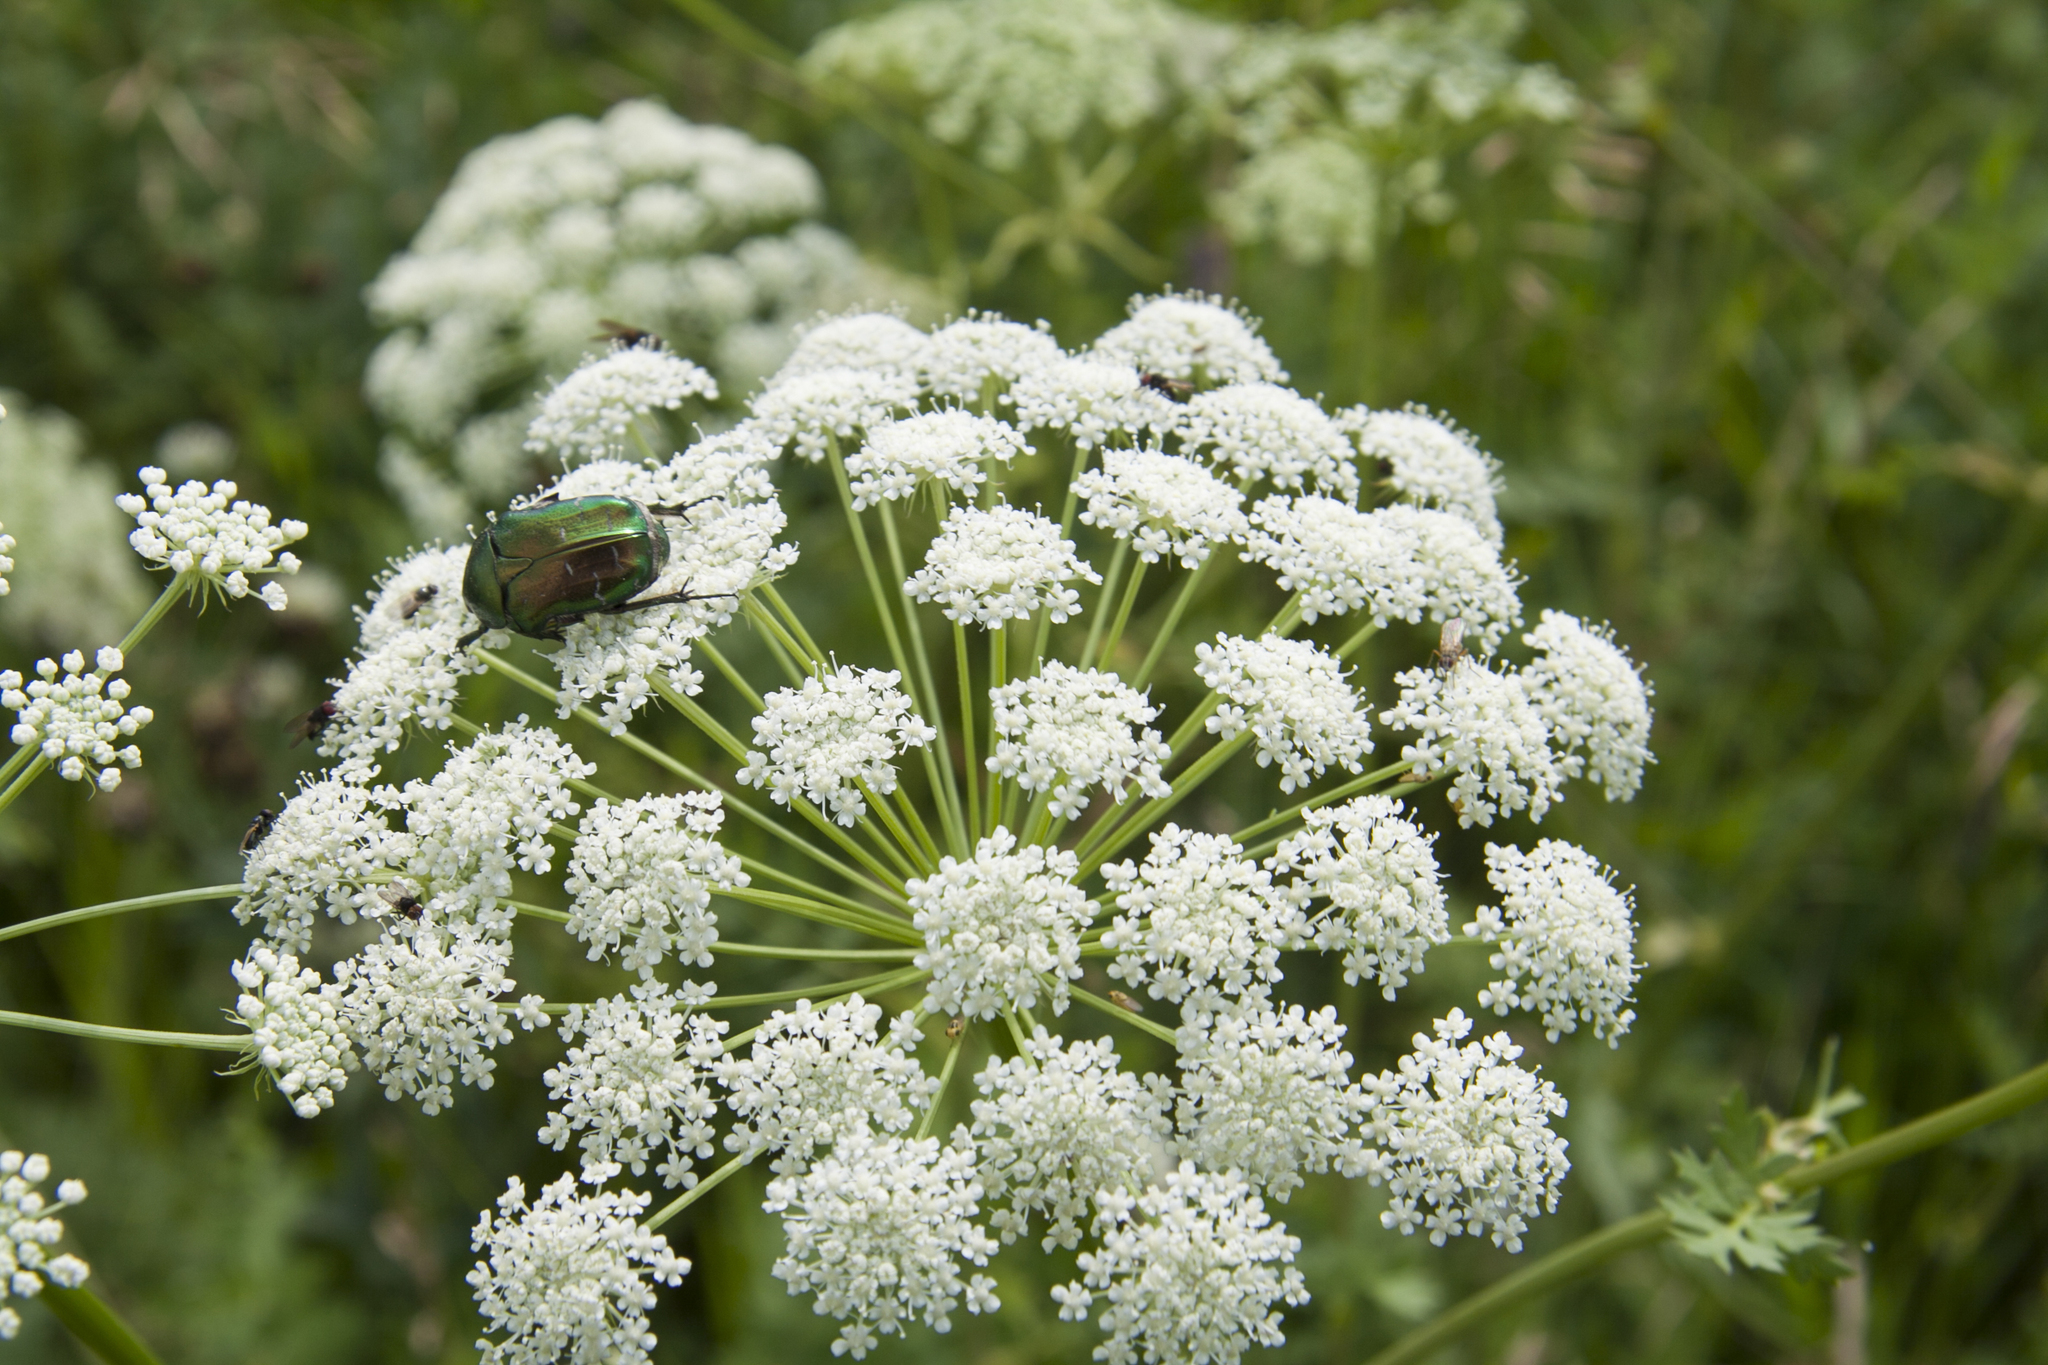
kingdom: Animalia
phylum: Arthropoda
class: Insecta
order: Coleoptera
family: Scarabaeidae
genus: Cetonia
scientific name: Cetonia aurata
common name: Rose chafer
